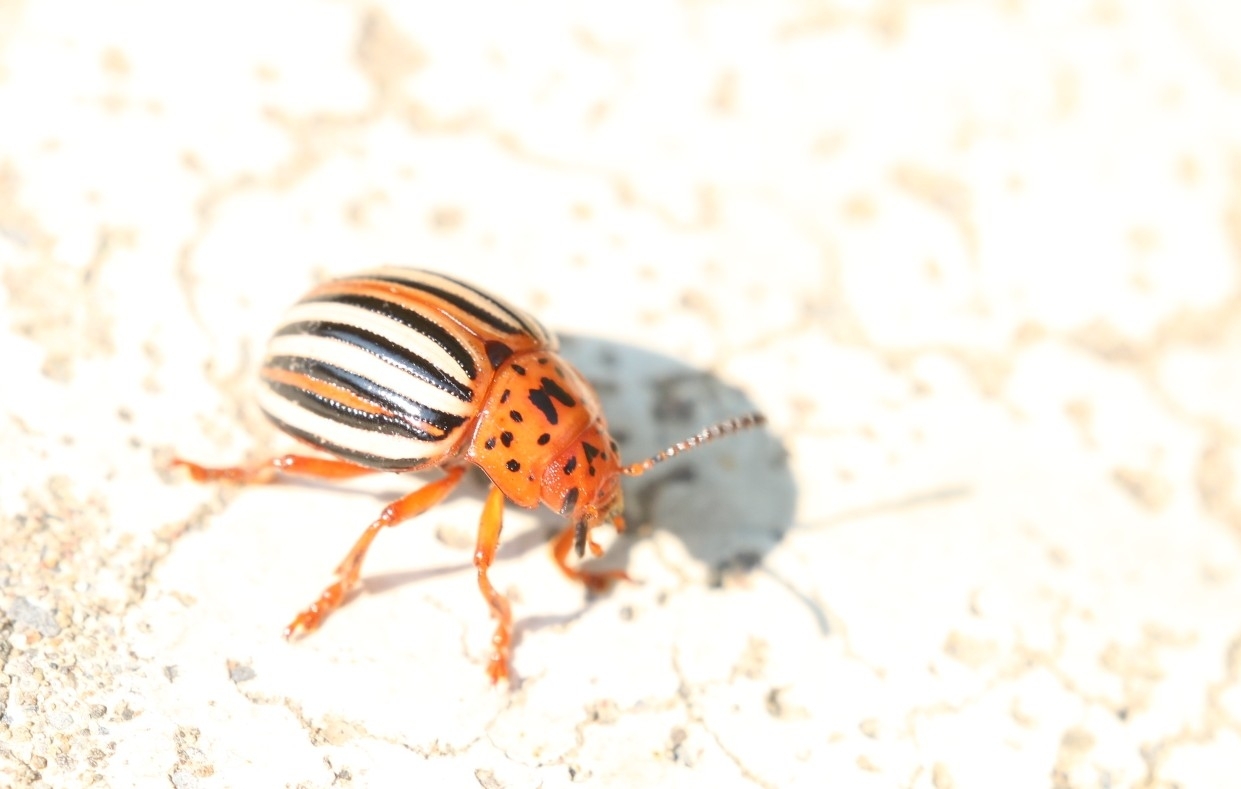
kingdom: Animalia
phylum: Arthropoda
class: Insecta
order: Coleoptera
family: Chrysomelidae
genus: Leptinotarsa
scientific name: Leptinotarsa juncta
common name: False potato beetle
